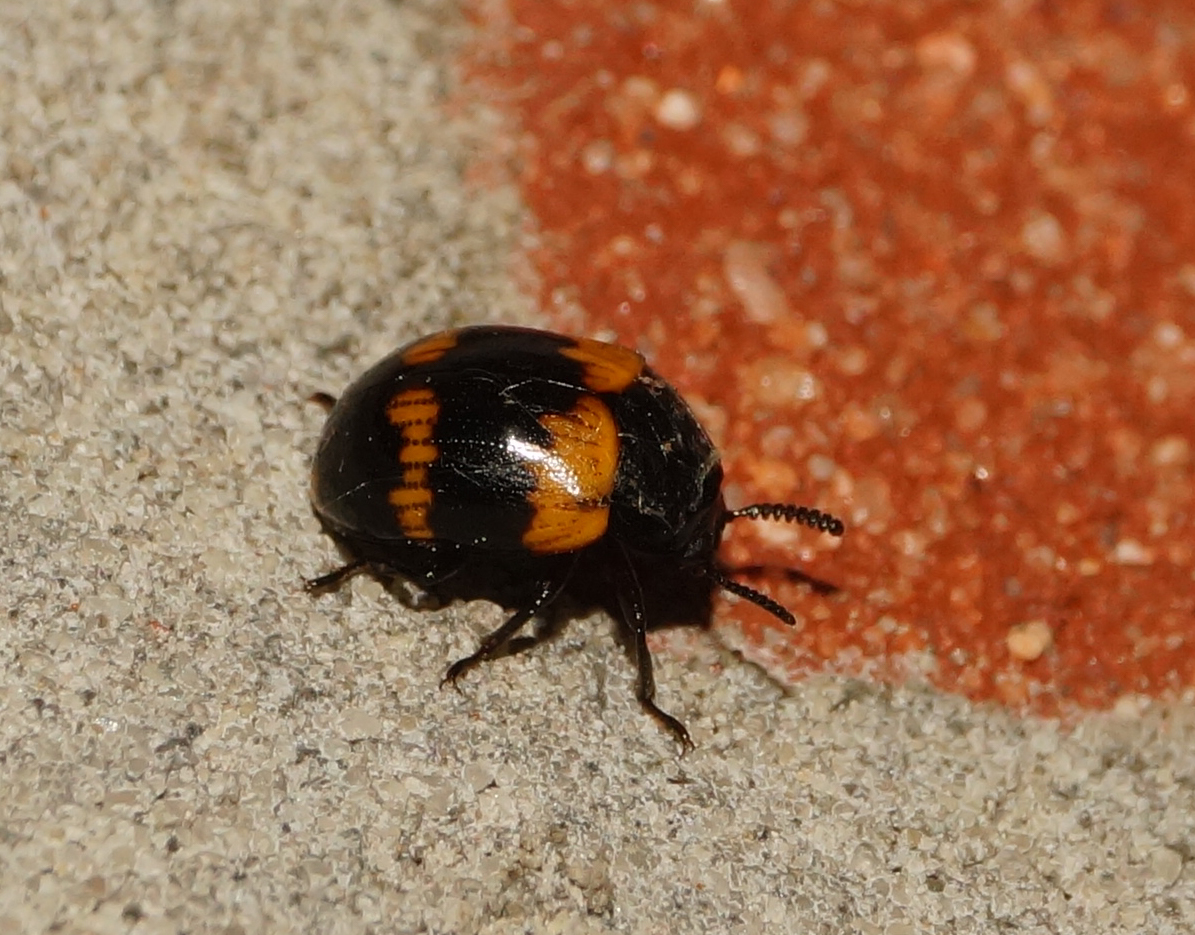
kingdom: Animalia
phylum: Arthropoda
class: Insecta
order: Coleoptera
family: Tenebrionidae
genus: Diaperis
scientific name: Diaperis boleti
